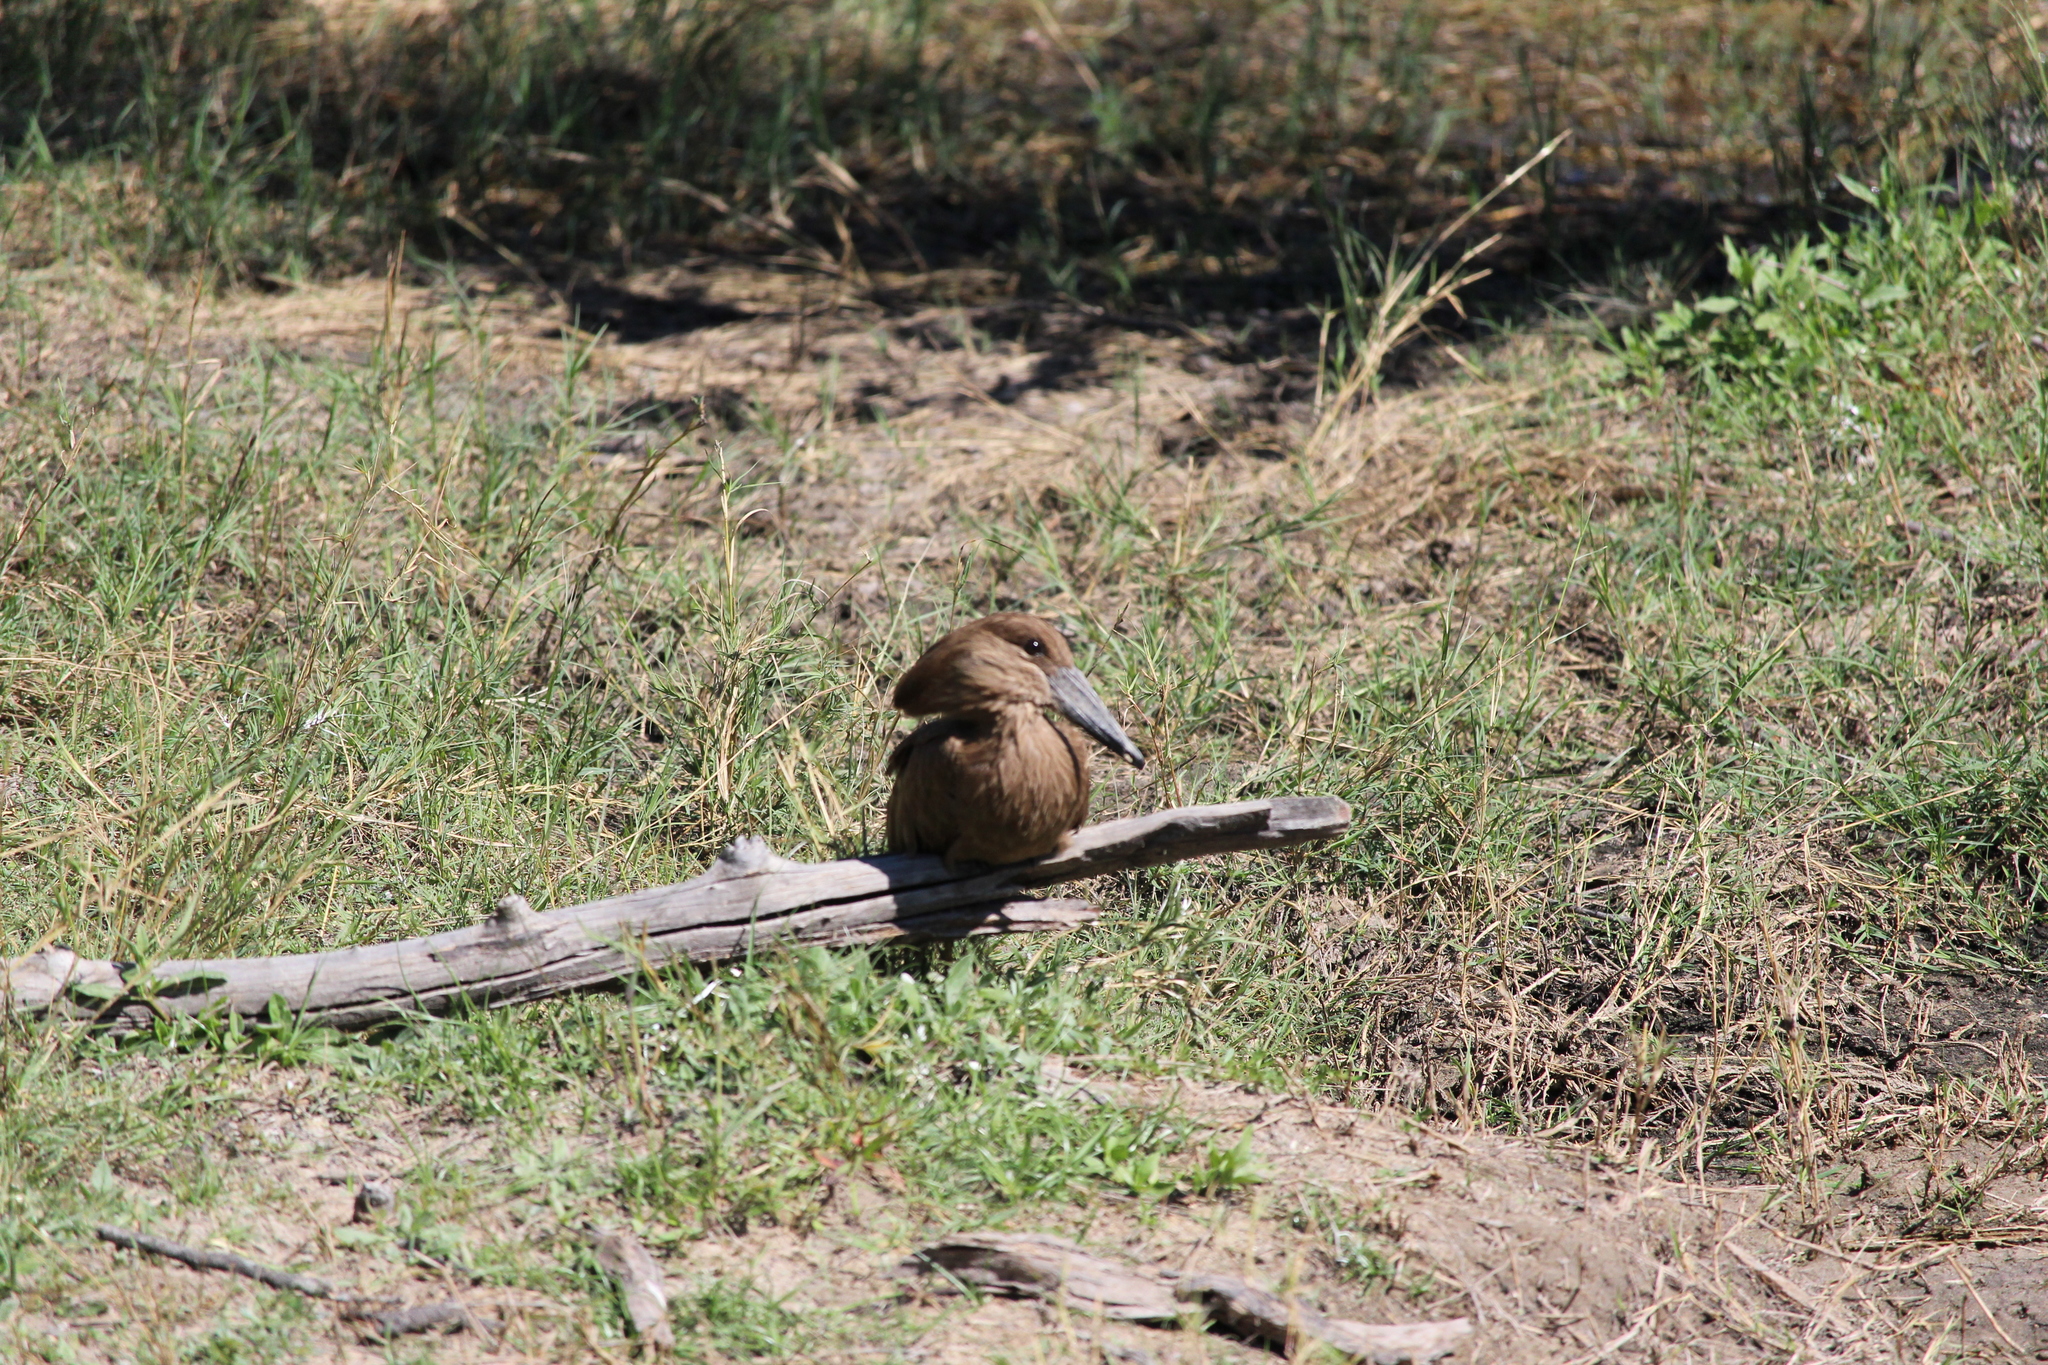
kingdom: Animalia
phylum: Chordata
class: Aves
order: Pelecaniformes
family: Scopidae
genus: Scopus
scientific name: Scopus umbretta
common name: Hamerkop
